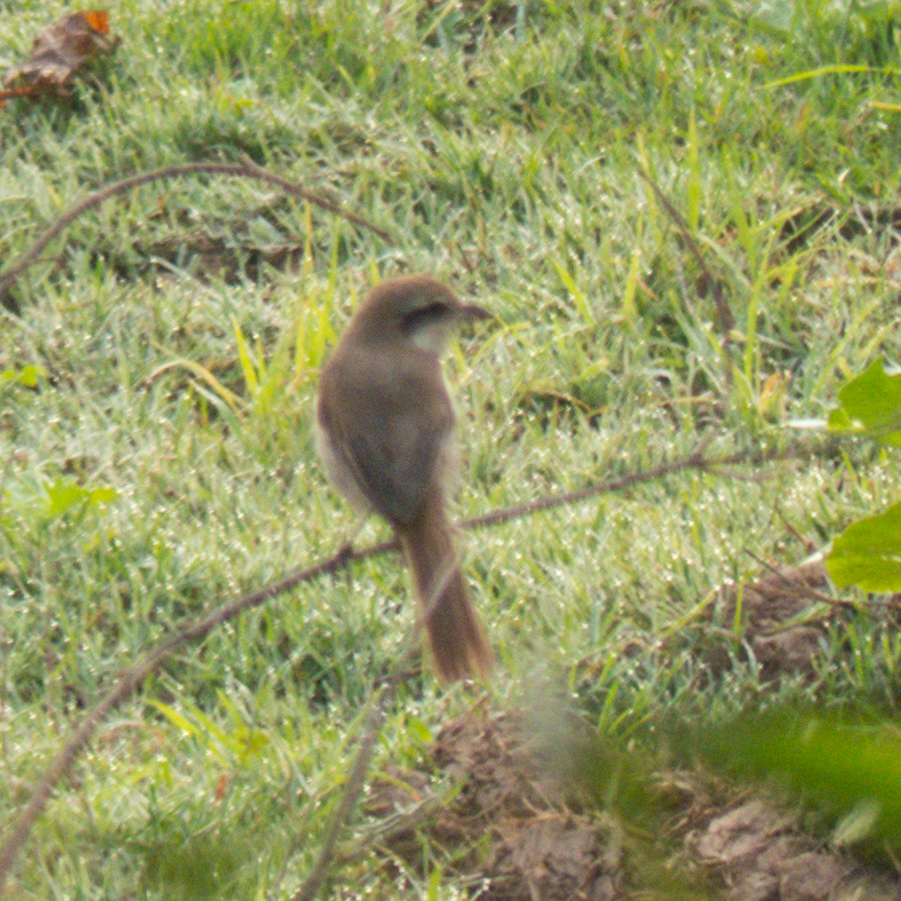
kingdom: Animalia
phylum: Chordata
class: Aves
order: Passeriformes
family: Laniidae
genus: Lanius
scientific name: Lanius cristatus
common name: Brown shrike
